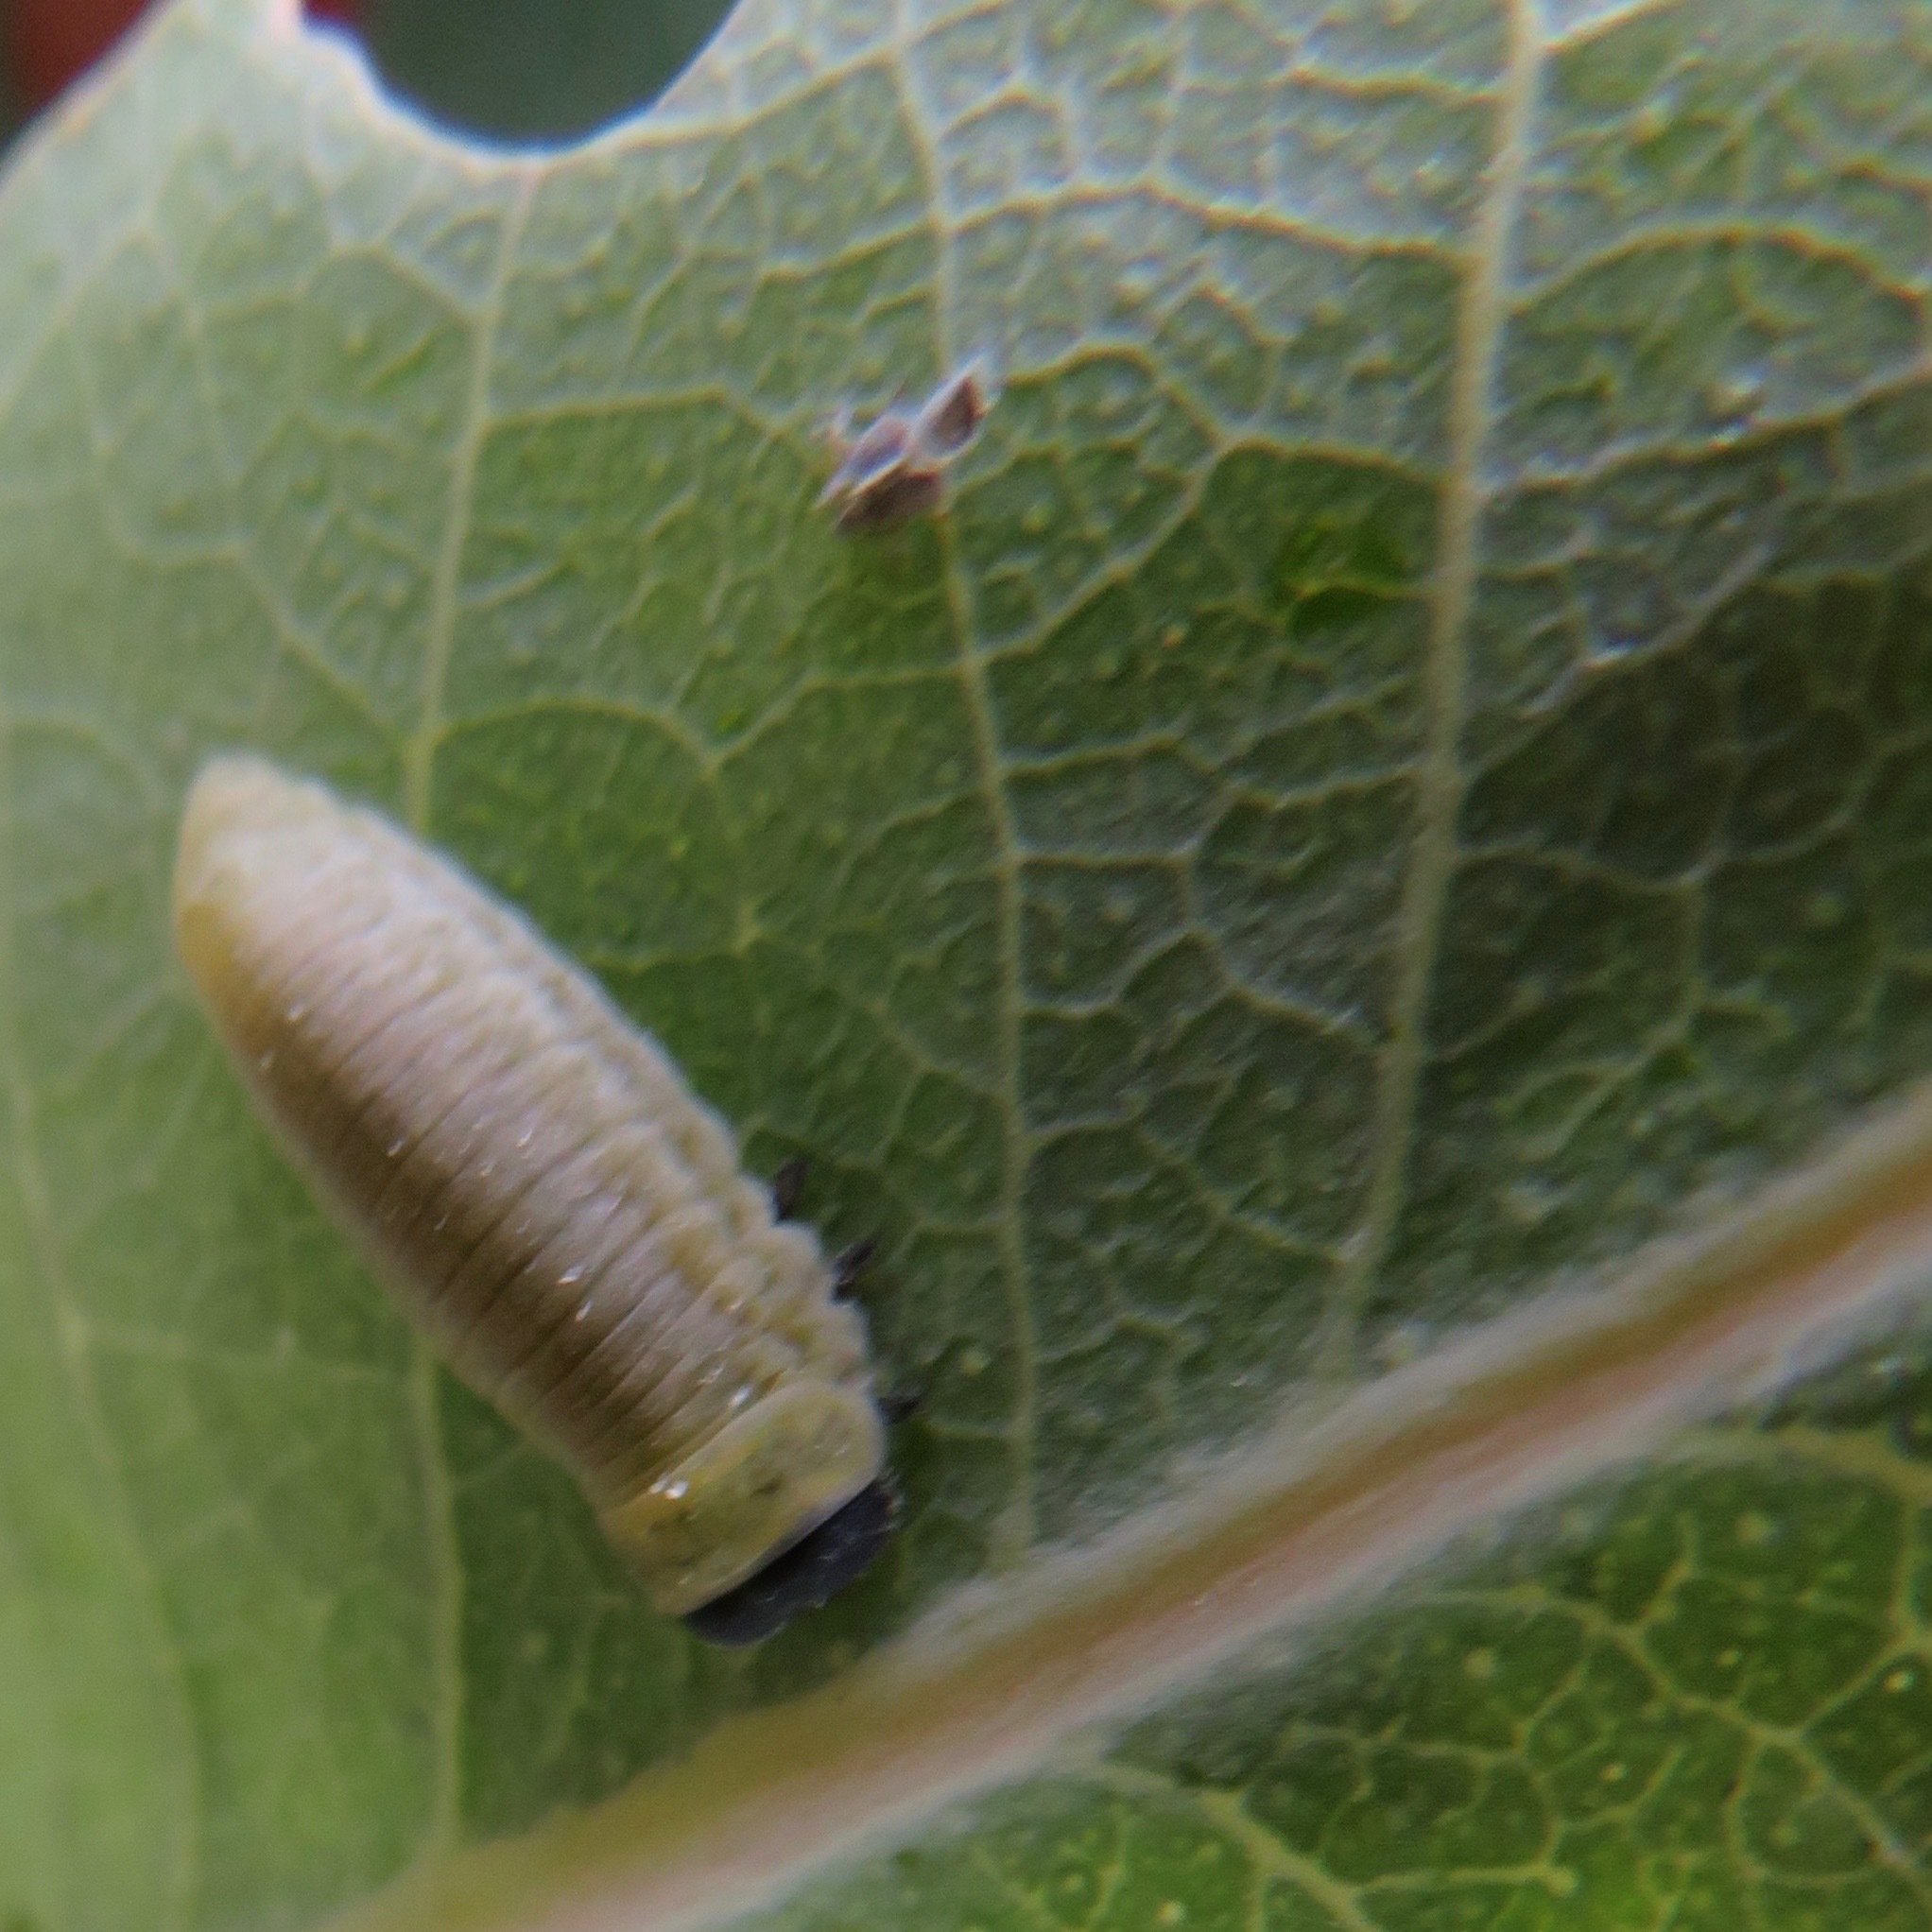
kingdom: Animalia
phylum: Arthropoda
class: Insecta
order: Coleoptera
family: Chrysomelidae
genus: Paropsisterna
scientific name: Paropsisterna m-fuscum
